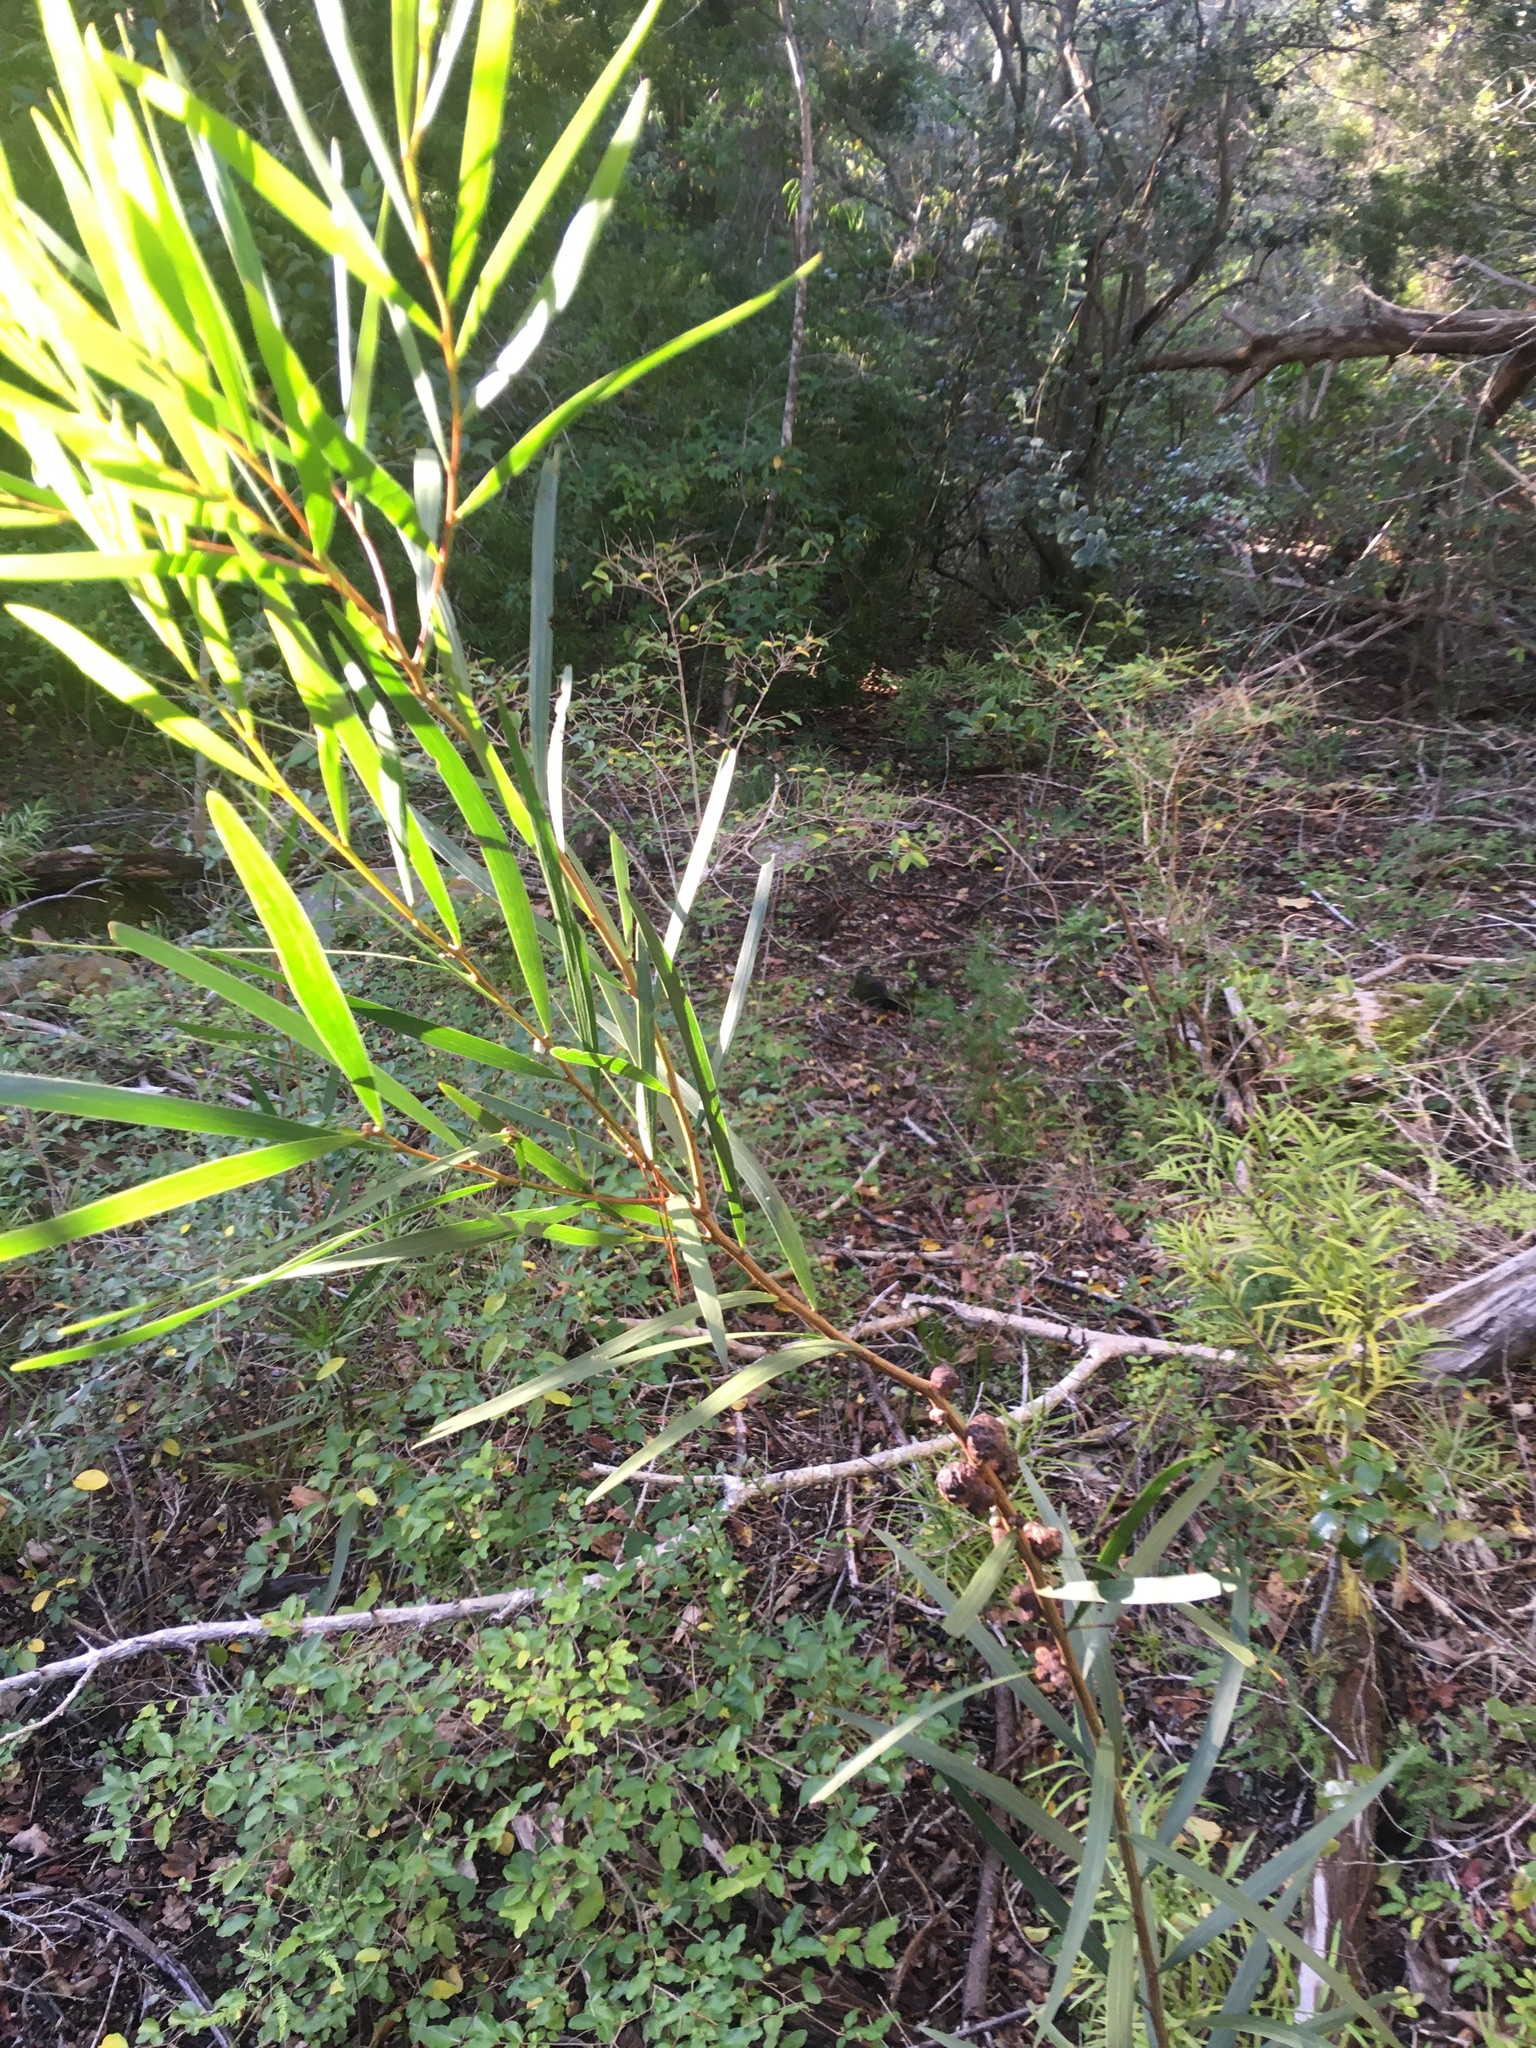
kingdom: Plantae
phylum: Tracheophyta
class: Magnoliopsida
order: Fabales
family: Fabaceae
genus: Acacia
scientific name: Acacia longifolia
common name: Sydney golden wattle
